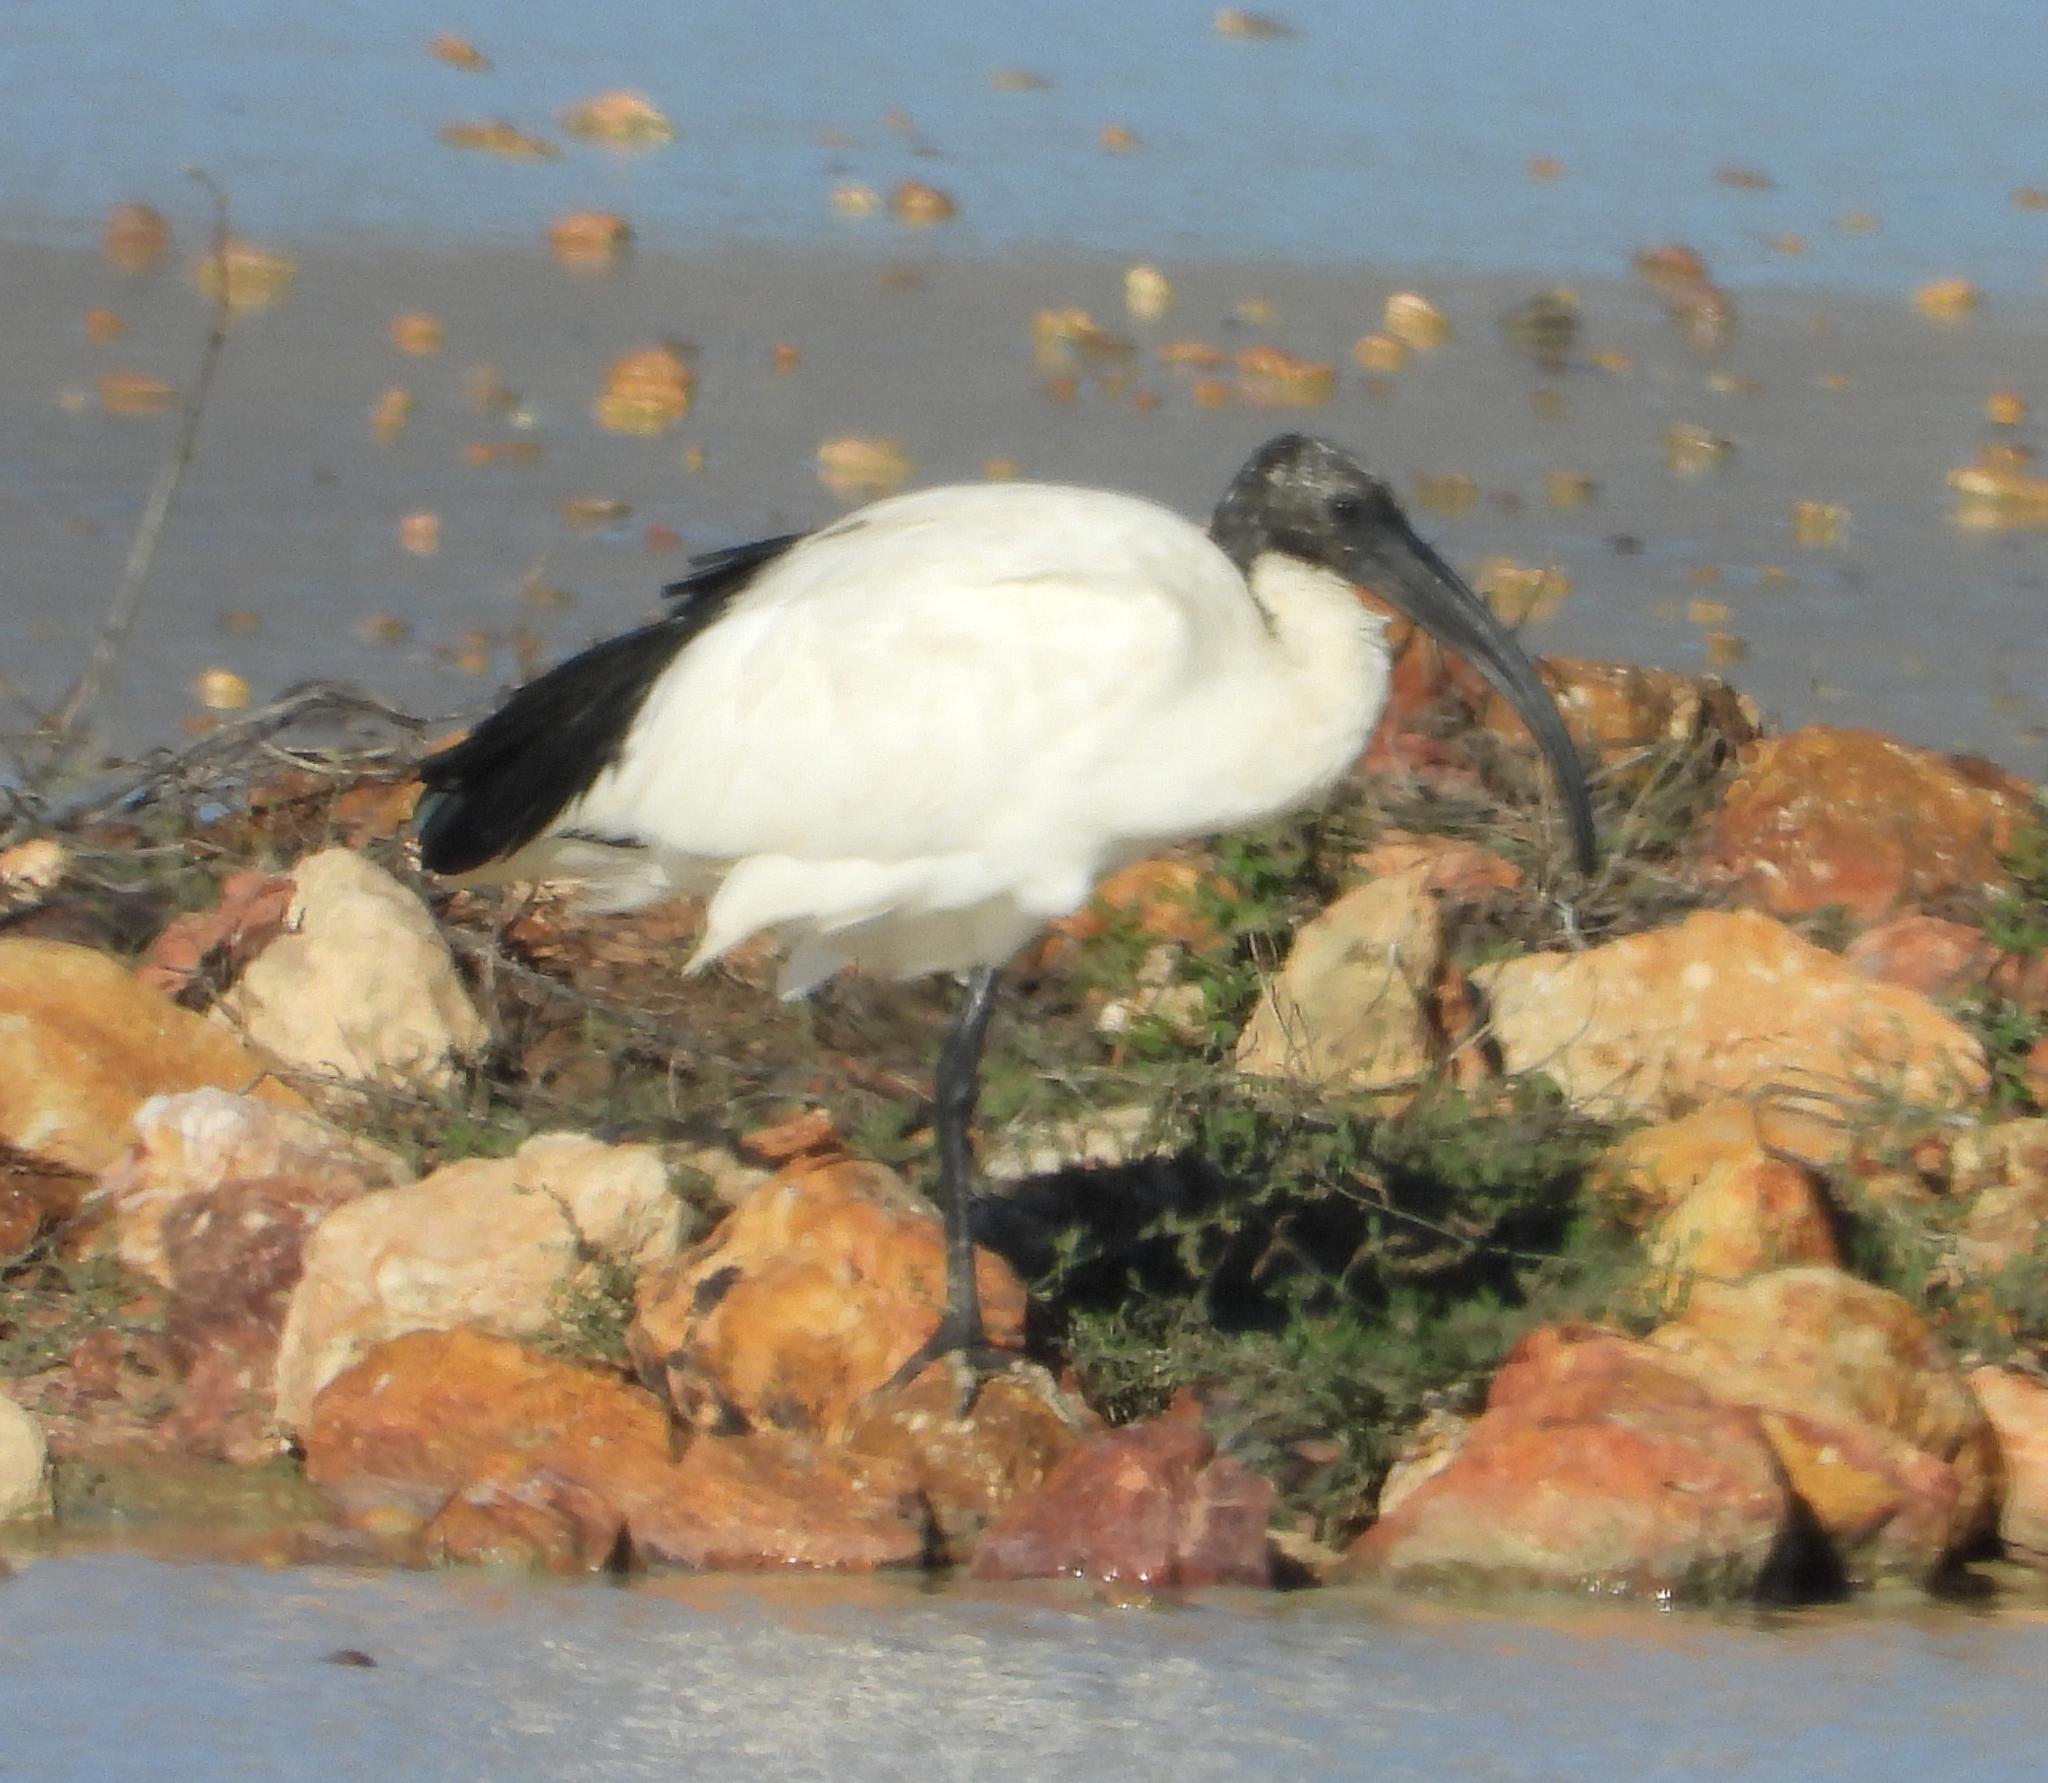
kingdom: Animalia
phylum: Chordata
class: Aves
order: Pelecaniformes
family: Threskiornithidae
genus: Threskiornis
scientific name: Threskiornis aethiopicus
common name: Sacred ibis
